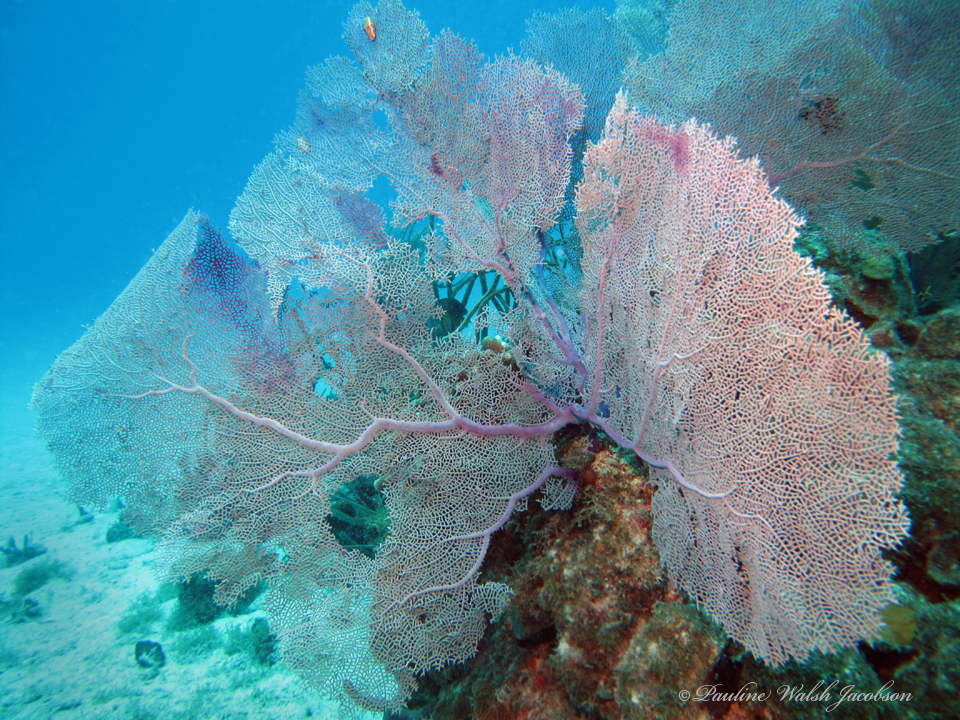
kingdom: Animalia
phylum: Cnidaria
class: Anthozoa
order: Malacalcyonacea
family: Gorgoniidae
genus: Gorgonia
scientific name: Gorgonia ventalina
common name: Common sea fan
